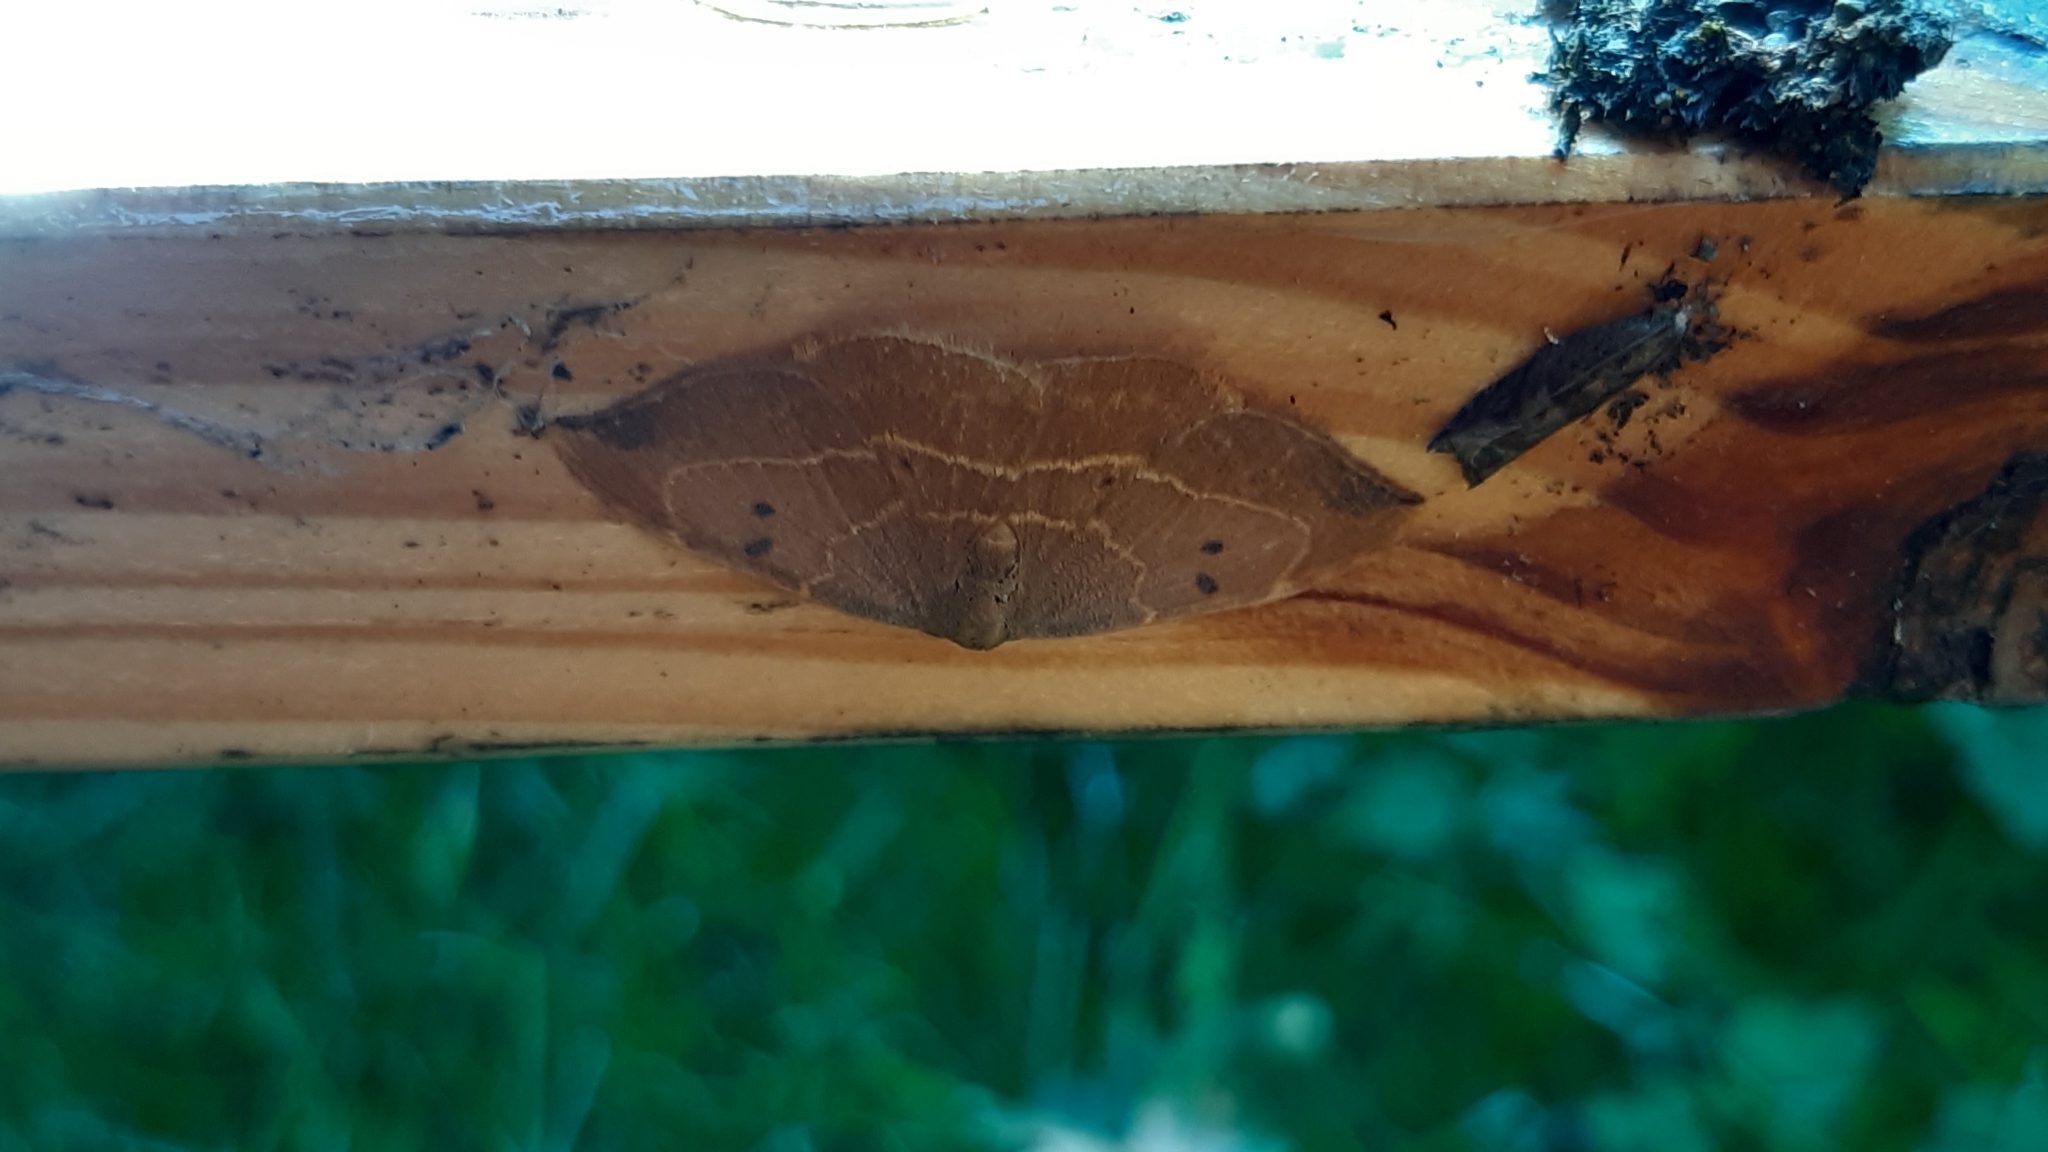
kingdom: Animalia
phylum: Arthropoda
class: Insecta
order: Lepidoptera
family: Drepanidae
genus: Watsonalla
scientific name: Watsonalla binaria
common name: Oak hook-tip
